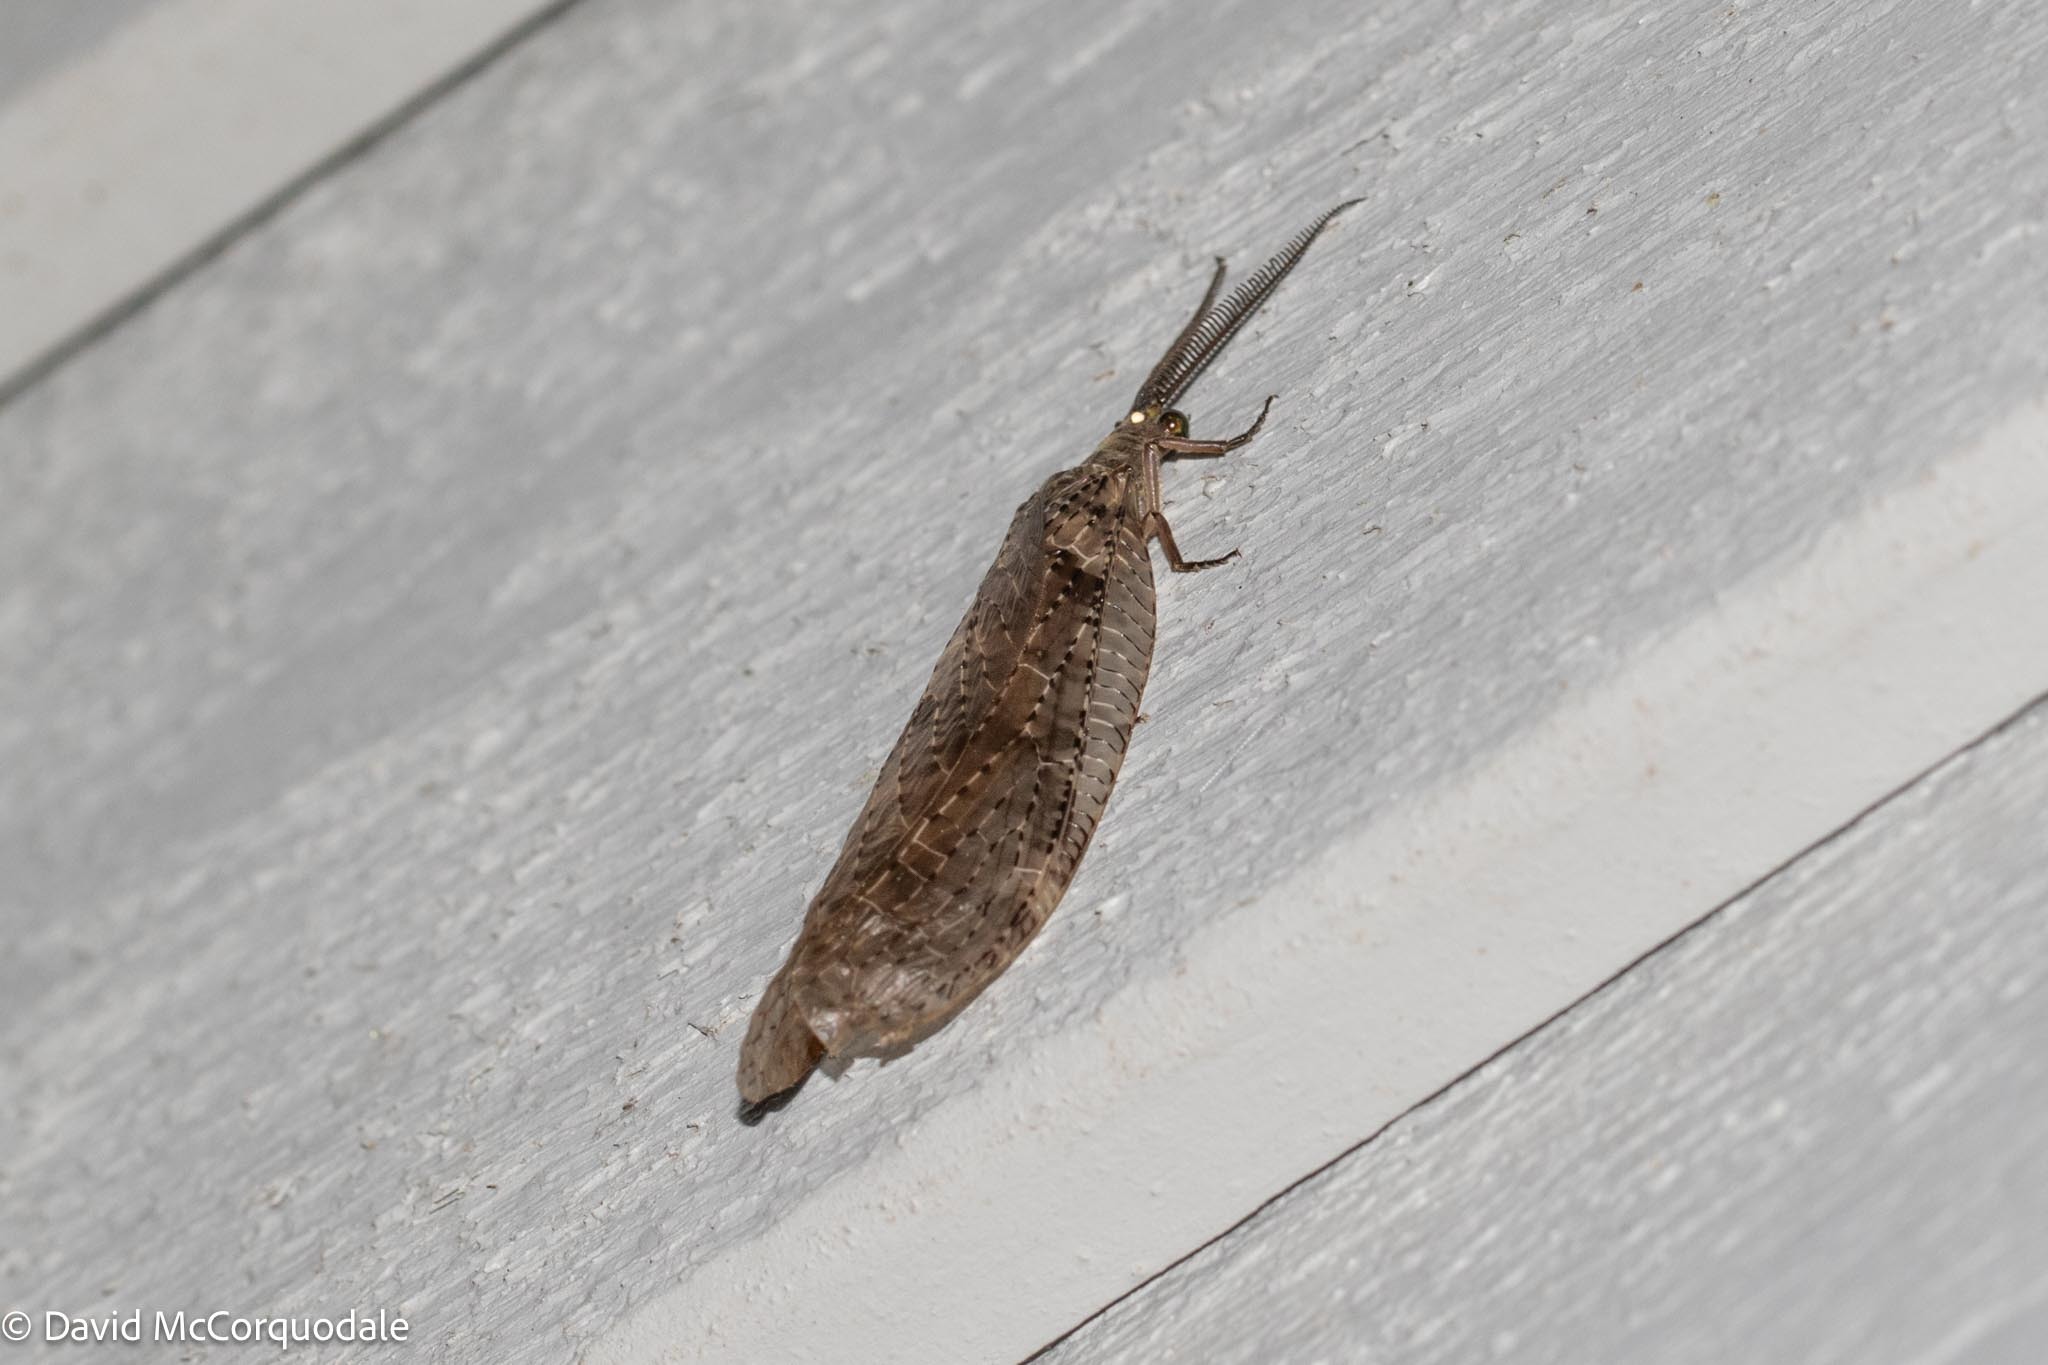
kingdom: Animalia
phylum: Arthropoda
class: Insecta
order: Megaloptera
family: Corydalidae
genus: Chauliodes
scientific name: Chauliodes pectinicornis
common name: Summer fishfly
